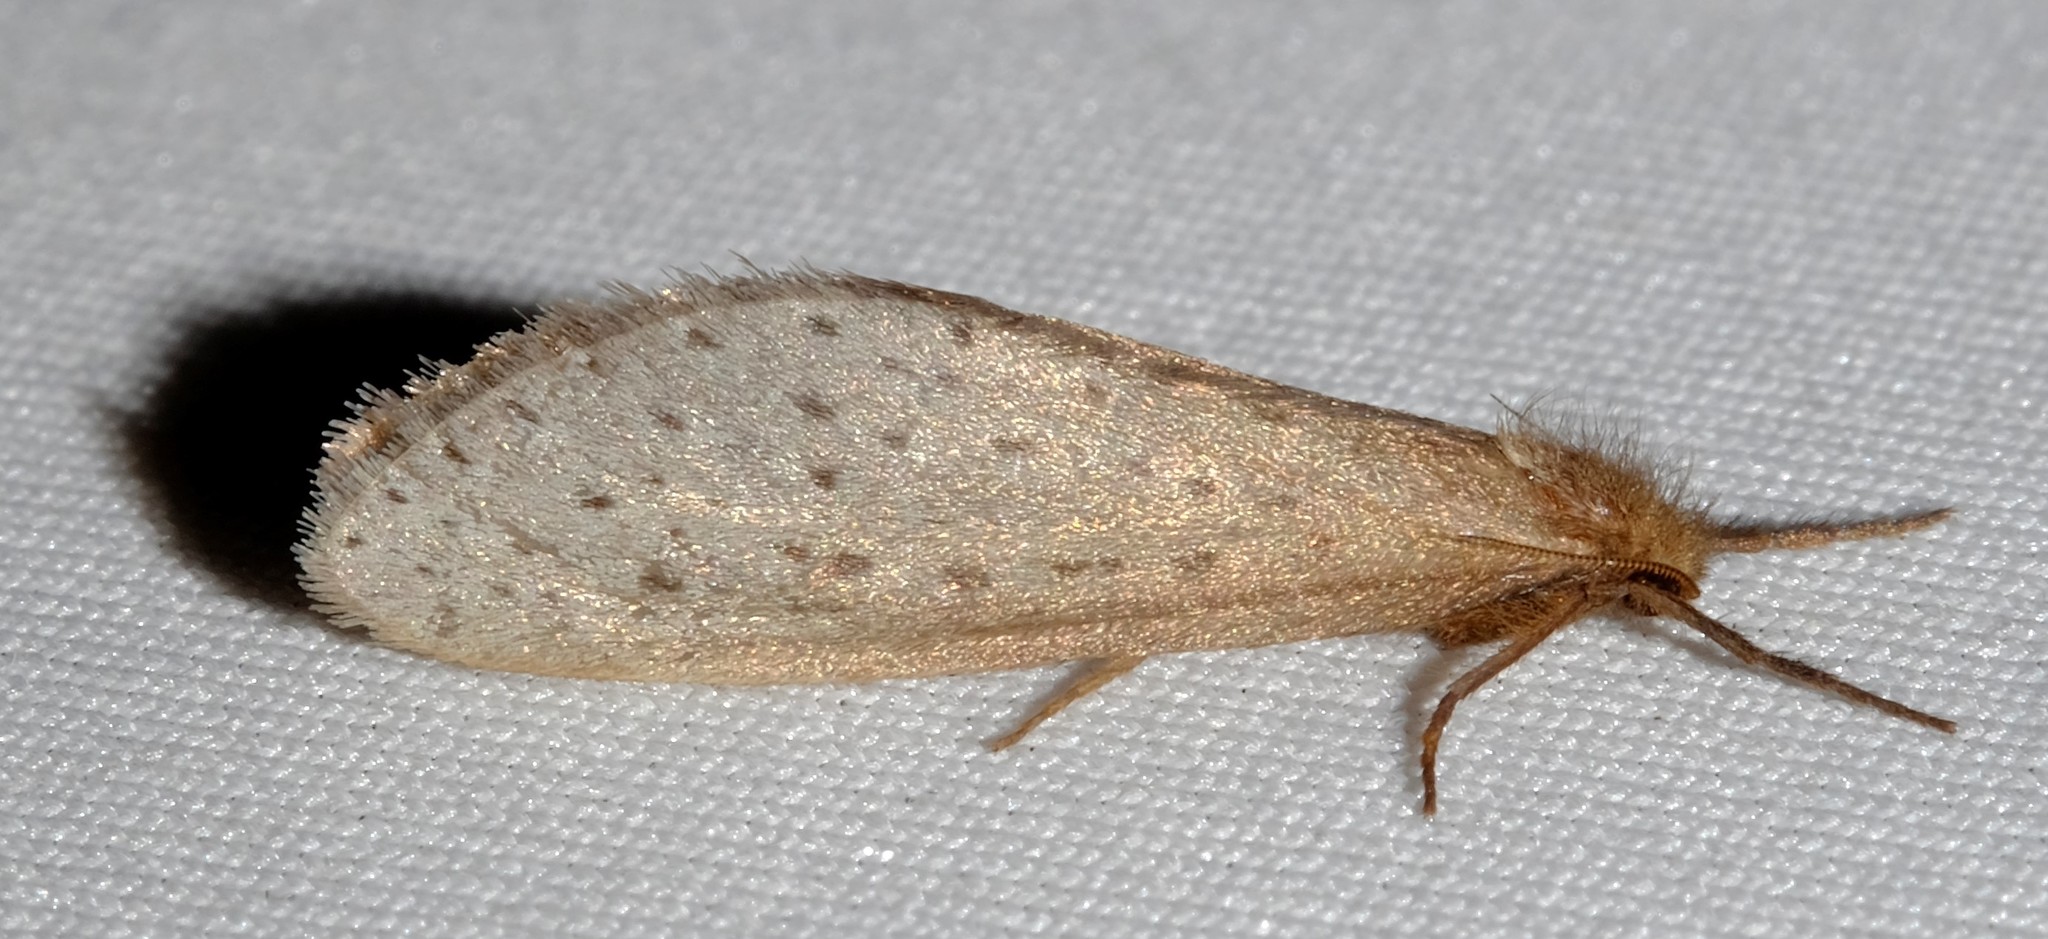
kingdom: Animalia
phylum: Arthropoda
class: Insecta
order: Lepidoptera
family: Hepialidae
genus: Fraus
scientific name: Fraus pteromela
